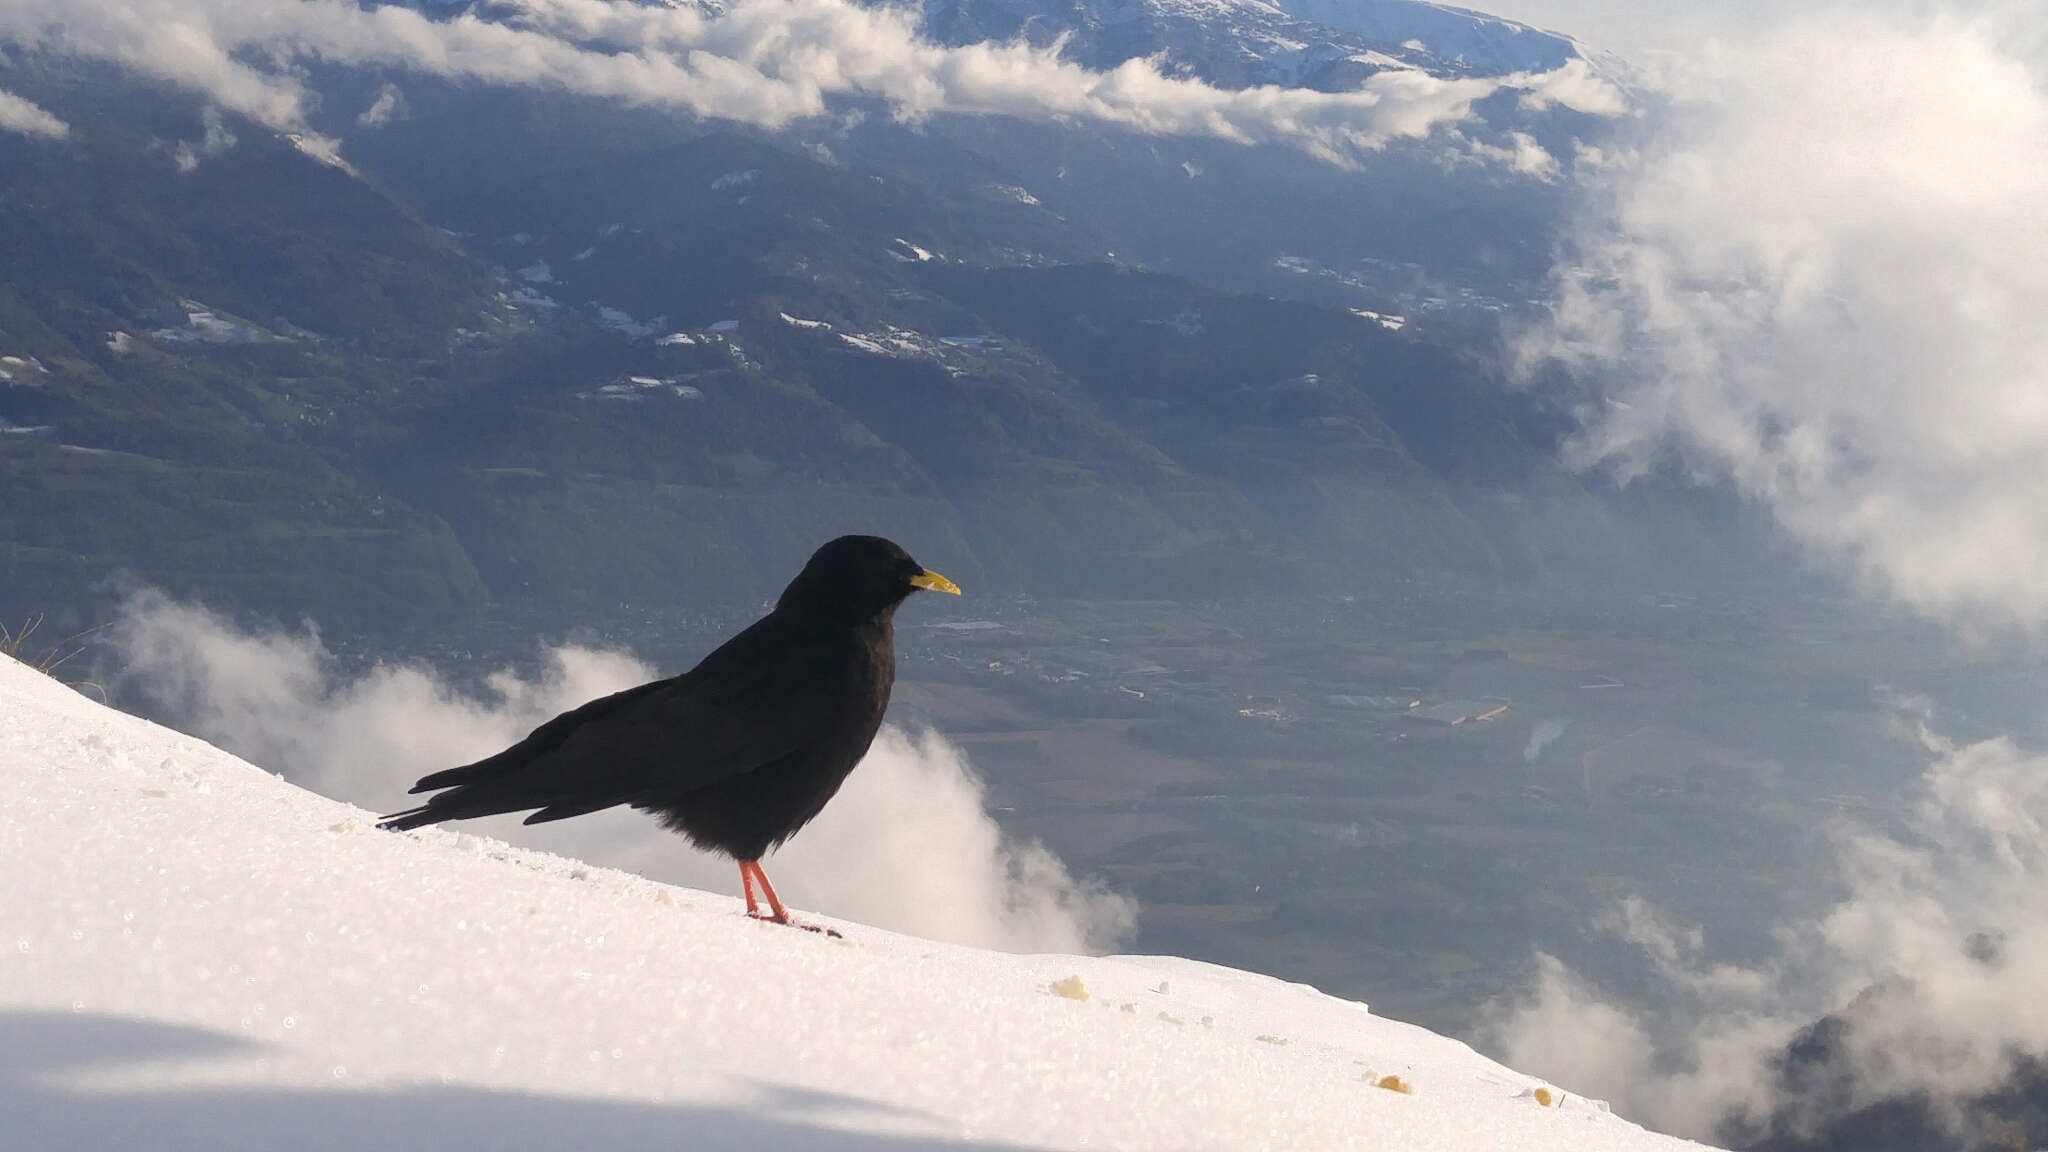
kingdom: Animalia
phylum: Chordata
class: Aves
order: Passeriformes
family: Corvidae
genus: Pyrrhocorax
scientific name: Pyrrhocorax graculus
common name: Alpine chough
